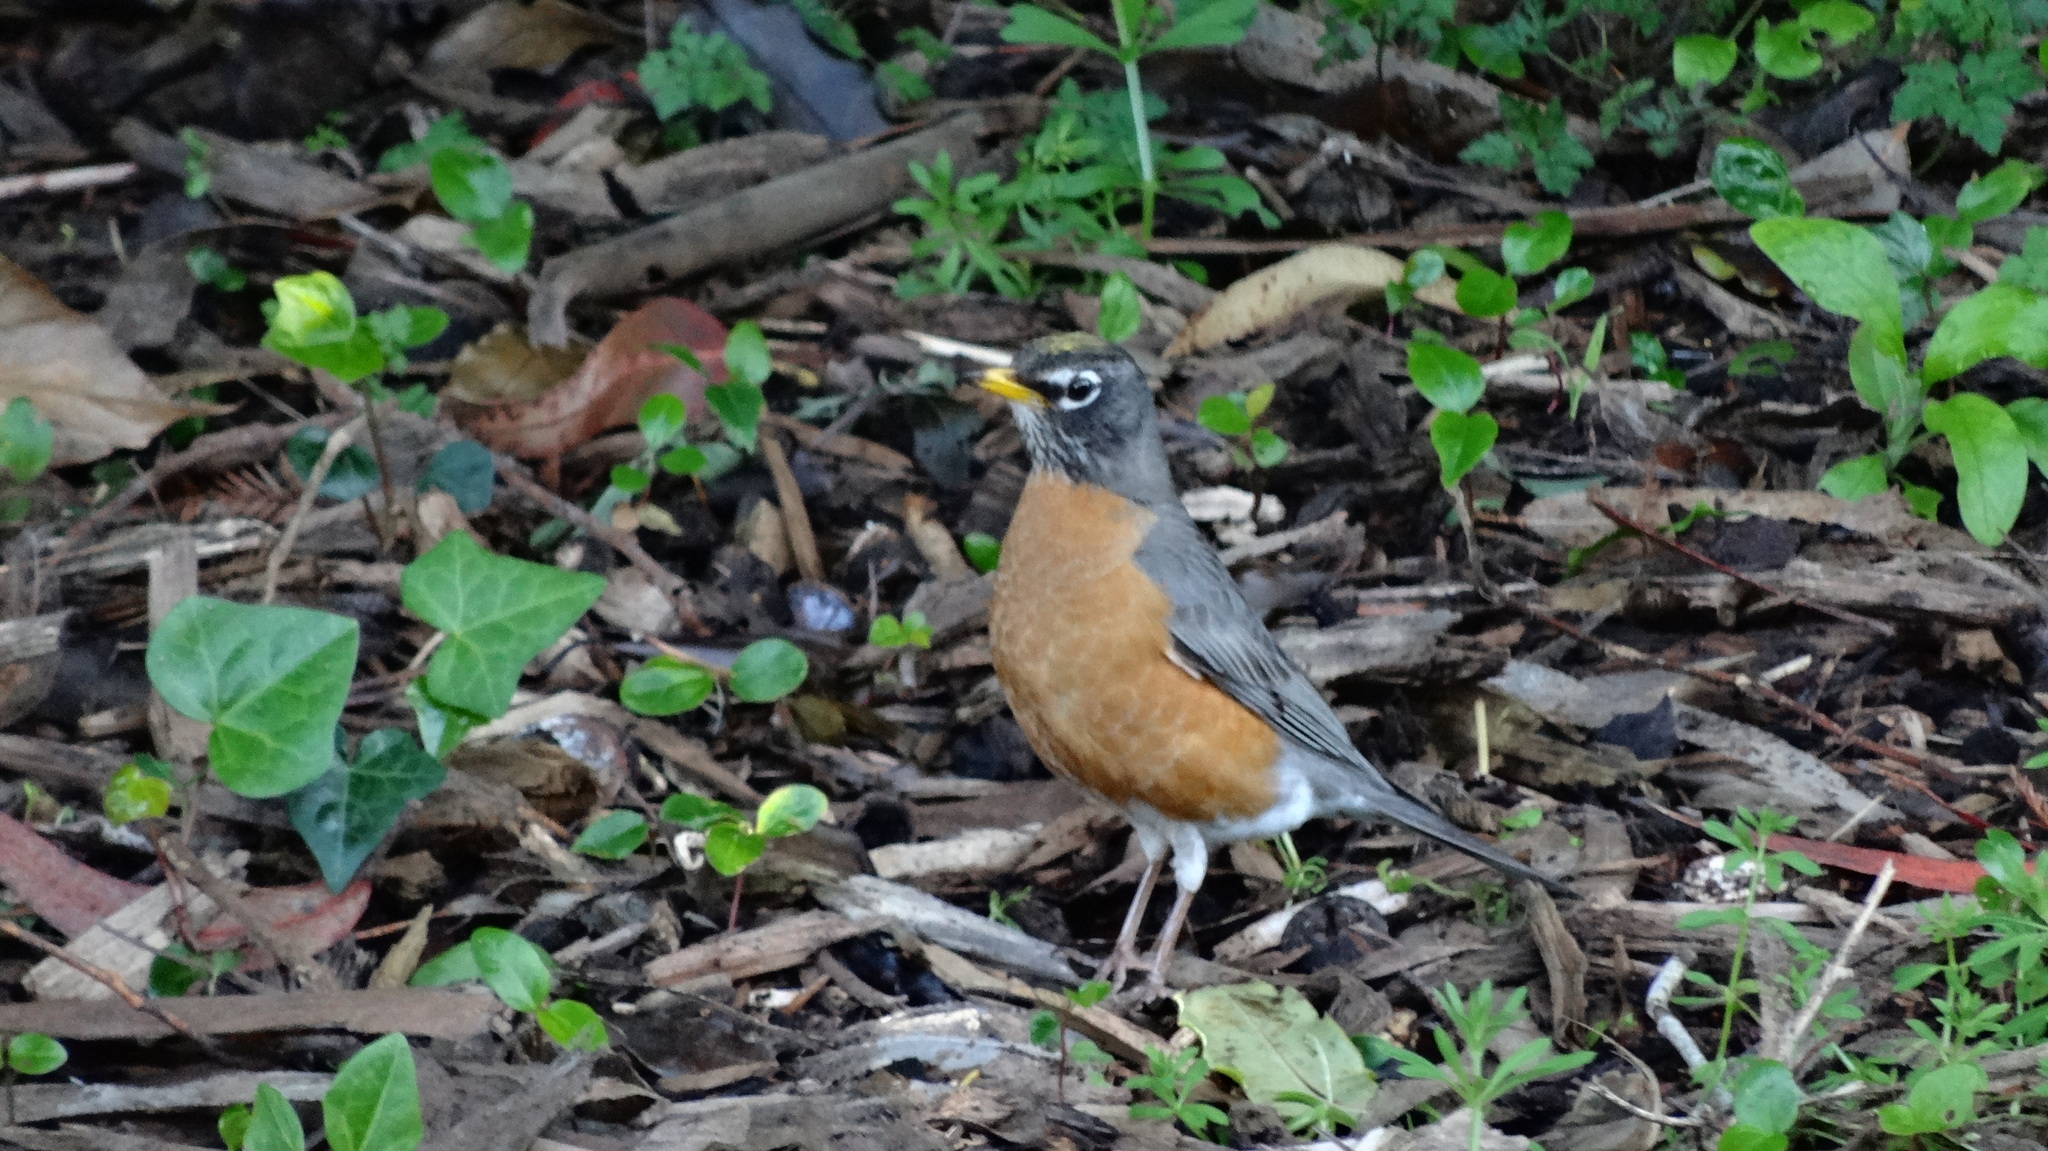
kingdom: Animalia
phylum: Chordata
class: Aves
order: Passeriformes
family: Turdidae
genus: Turdus
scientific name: Turdus migratorius
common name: American robin
